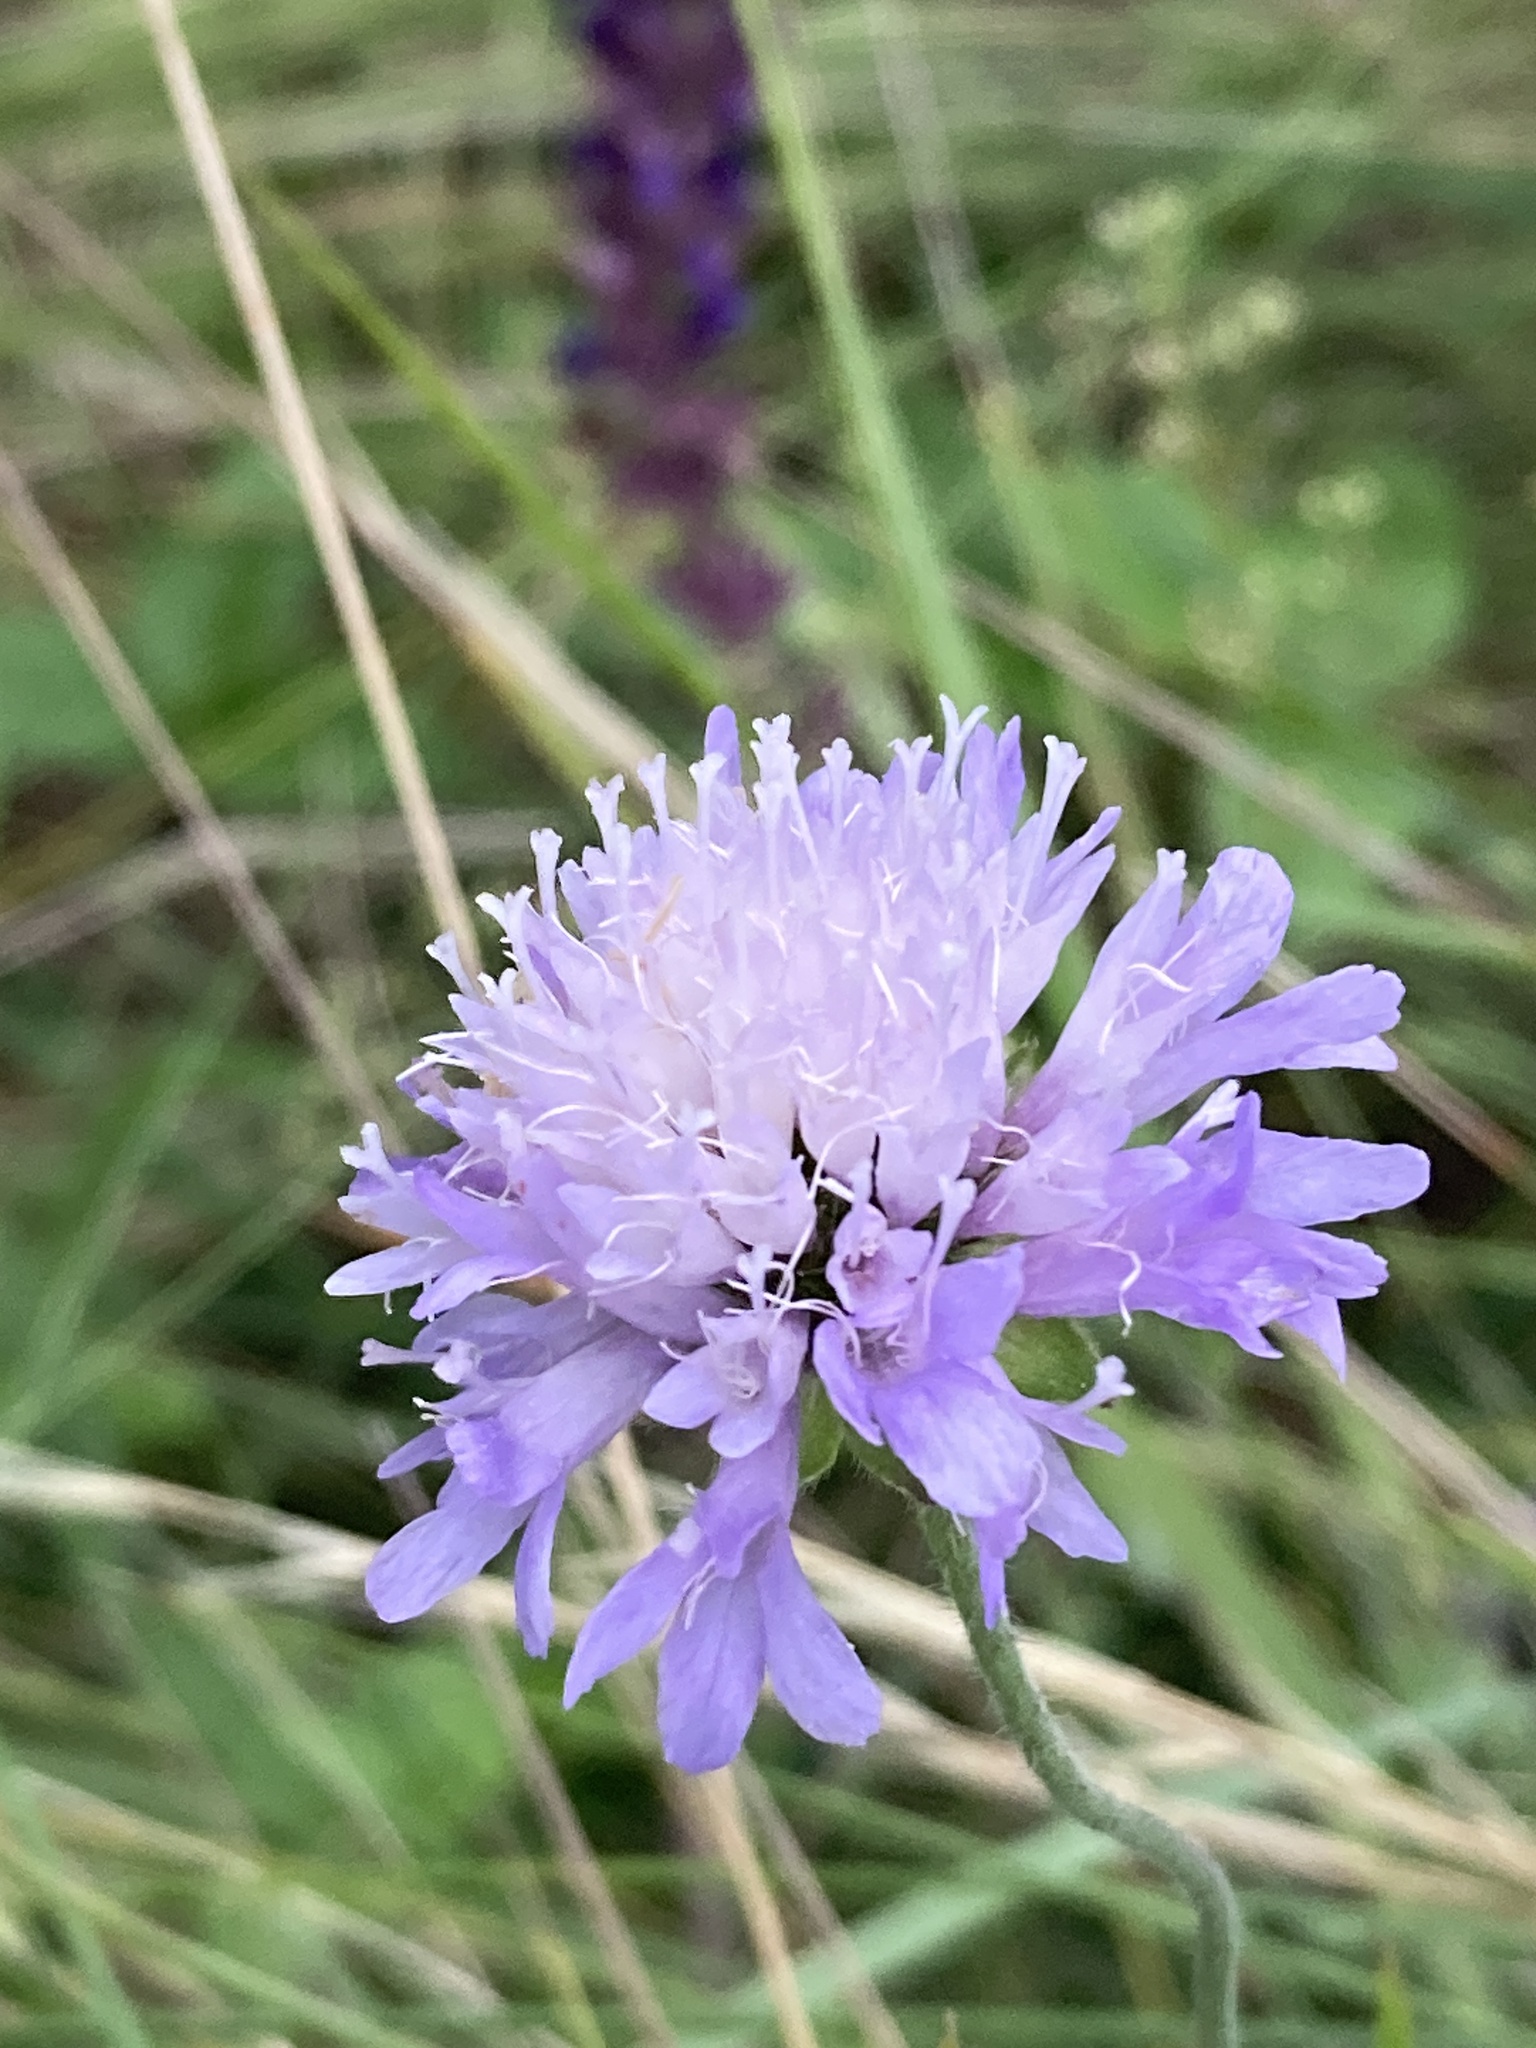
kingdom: Plantae
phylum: Tracheophyta
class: Magnoliopsida
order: Dipsacales
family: Caprifoliaceae
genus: Knautia
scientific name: Knautia arvensis
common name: Field scabiosa
